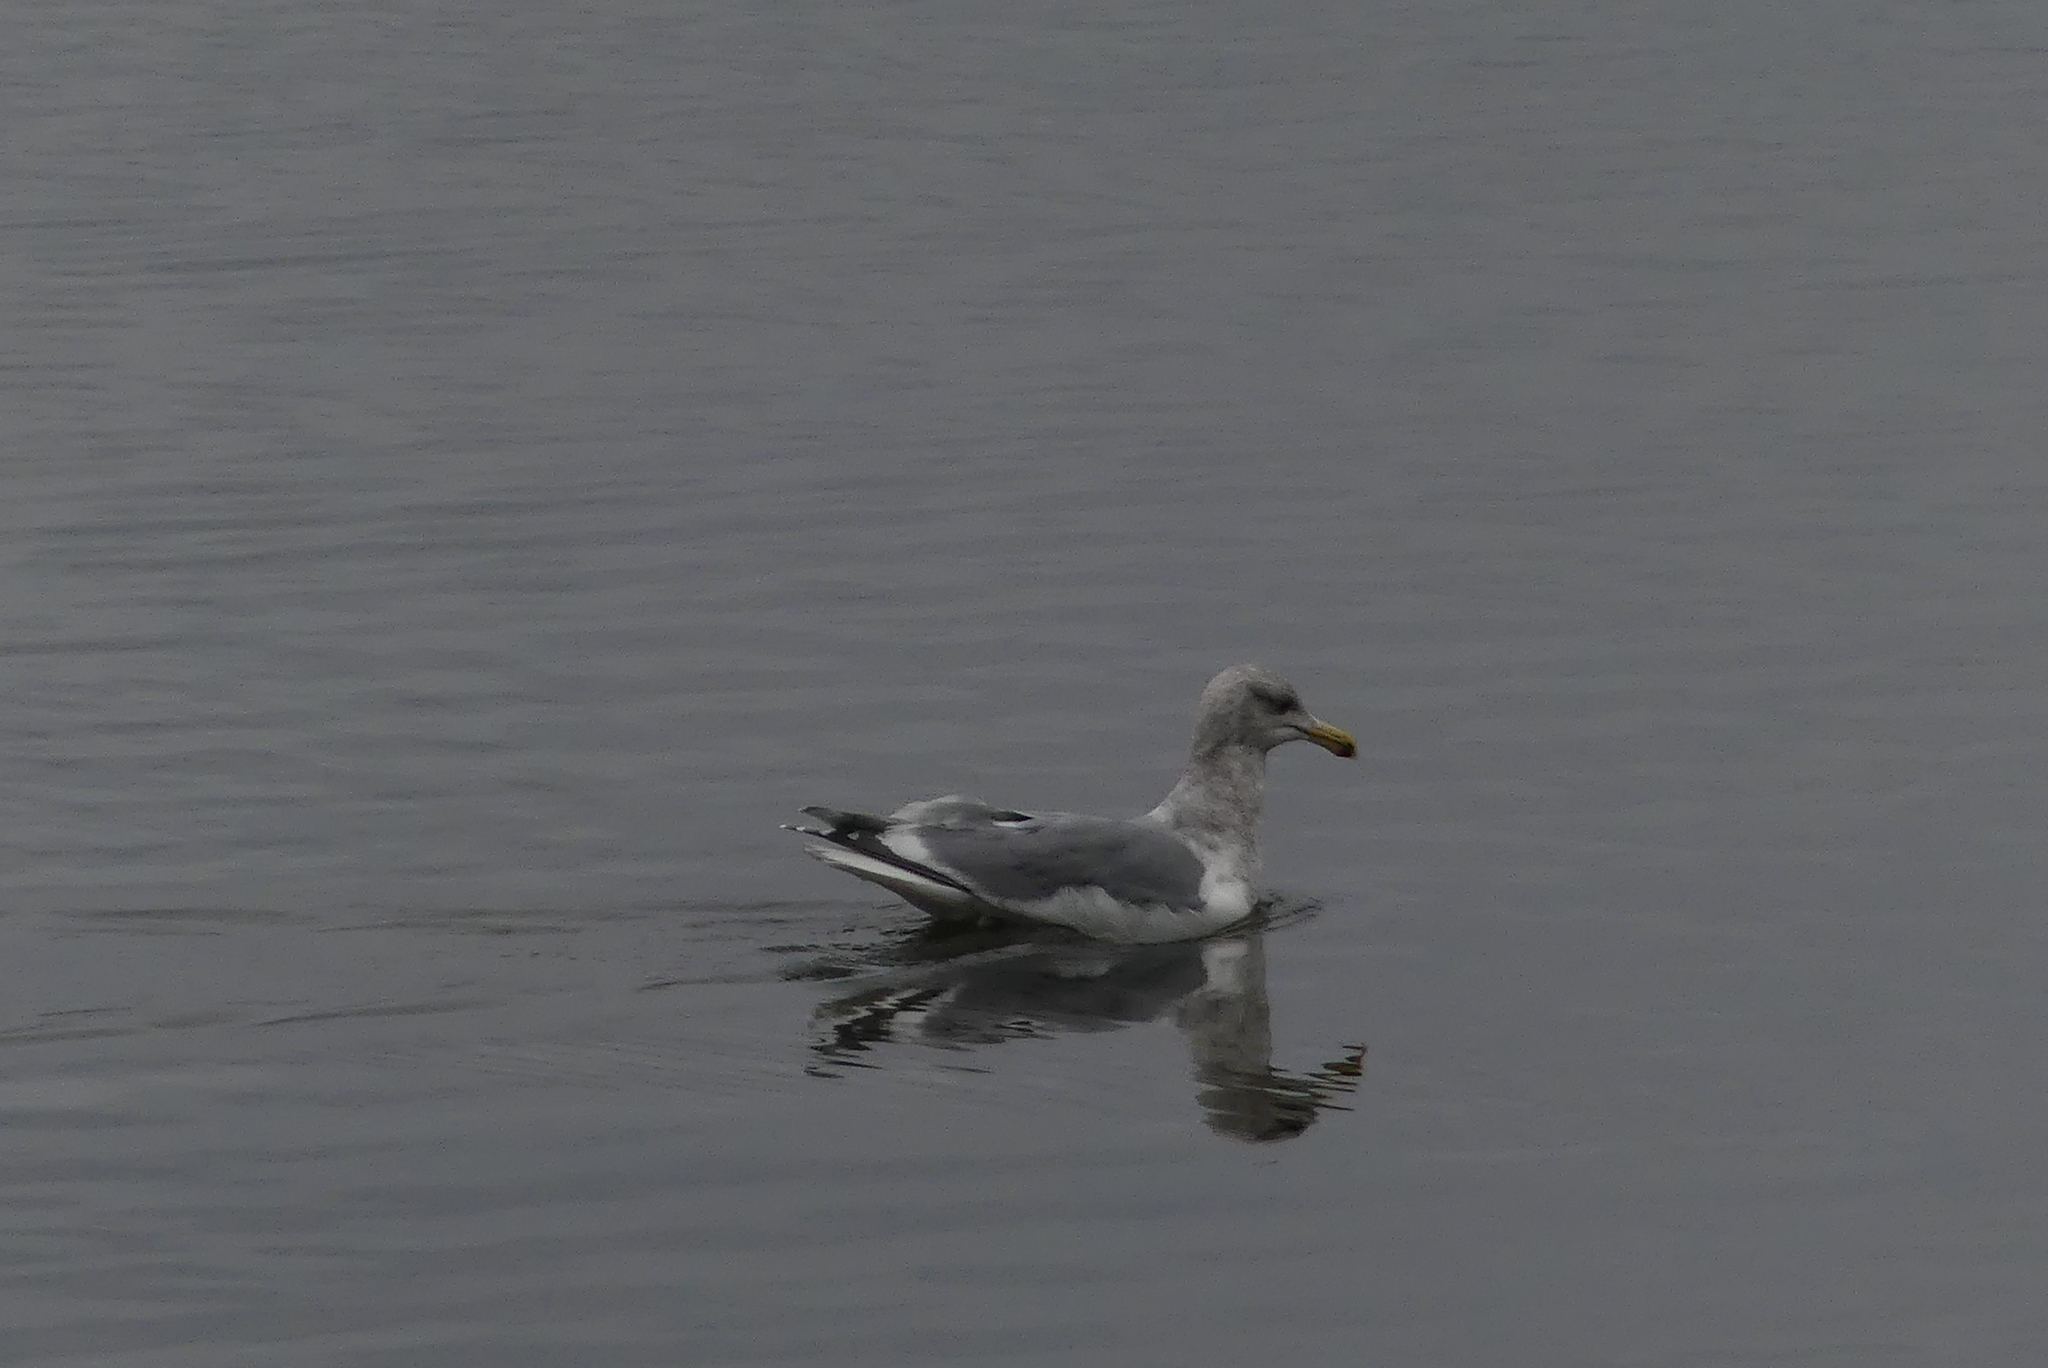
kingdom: Animalia
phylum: Chordata
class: Aves
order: Charadriiformes
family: Laridae
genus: Larus
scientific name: Larus
